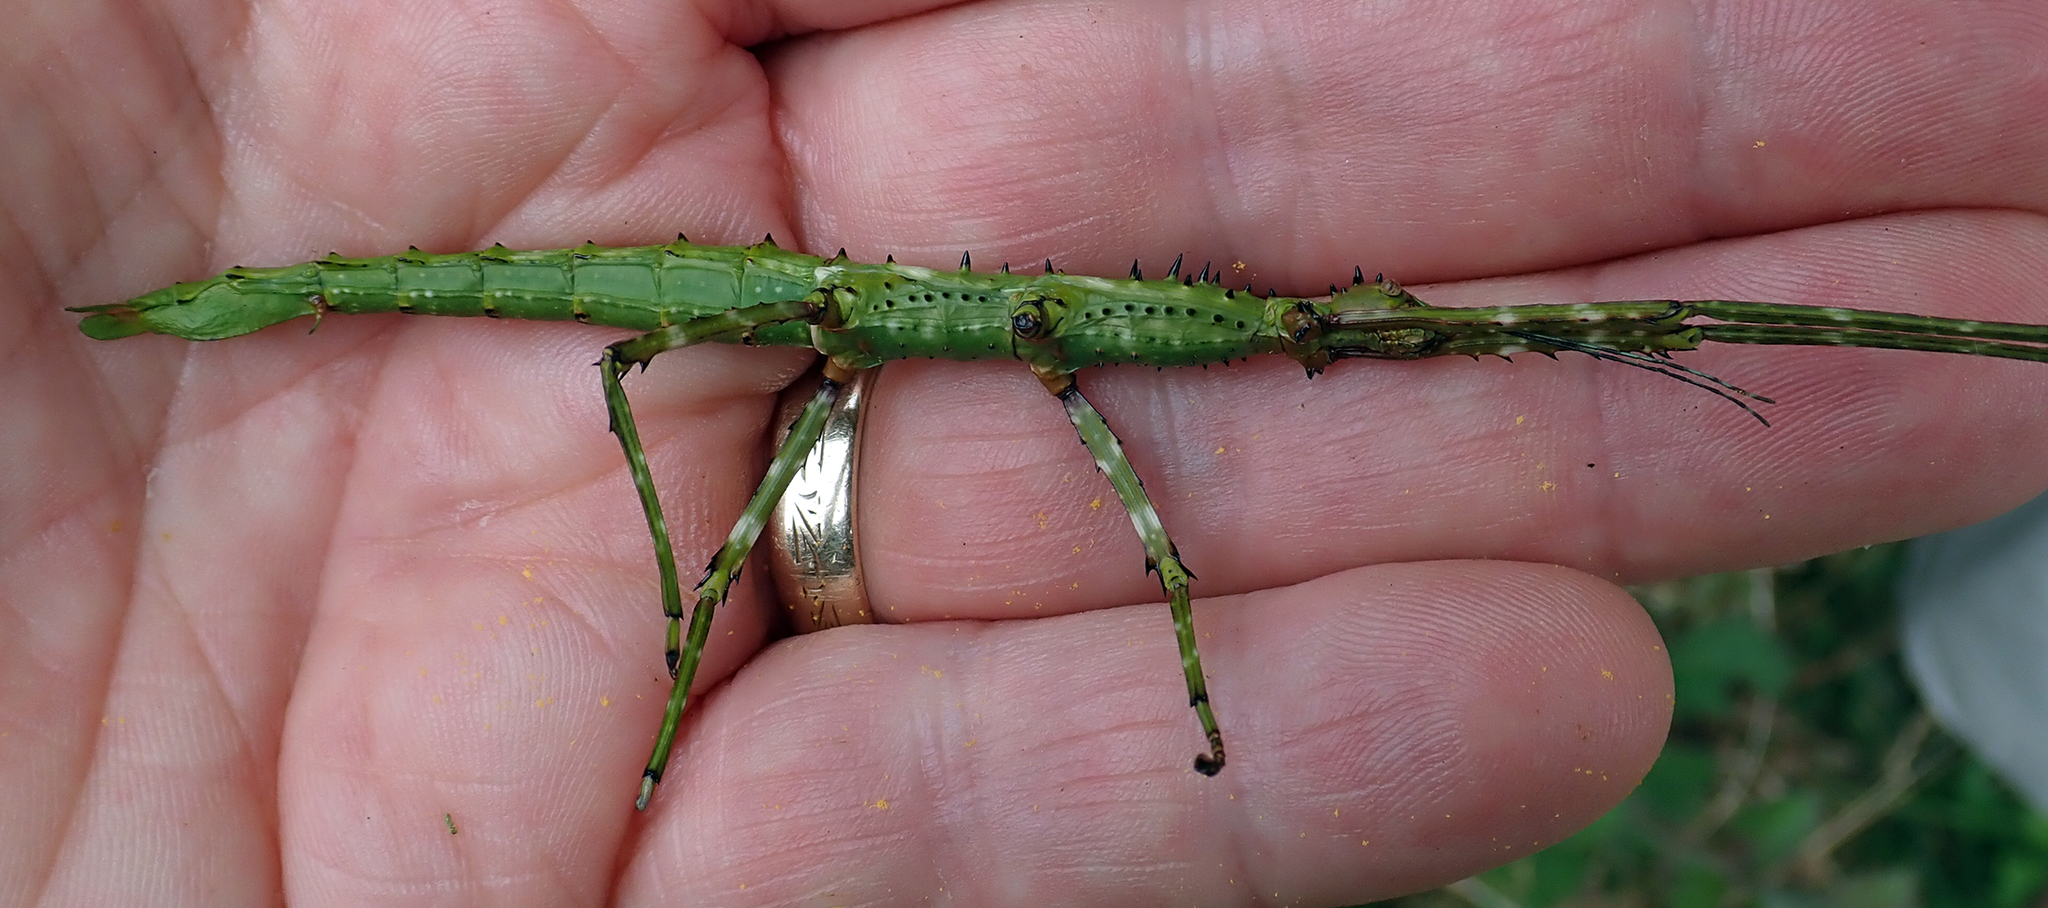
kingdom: Animalia
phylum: Arthropoda
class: Insecta
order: Phasmida
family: Phasmatidae
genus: Acanthoxyla
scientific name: Acanthoxyla geisovii
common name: Prickly stick insect
